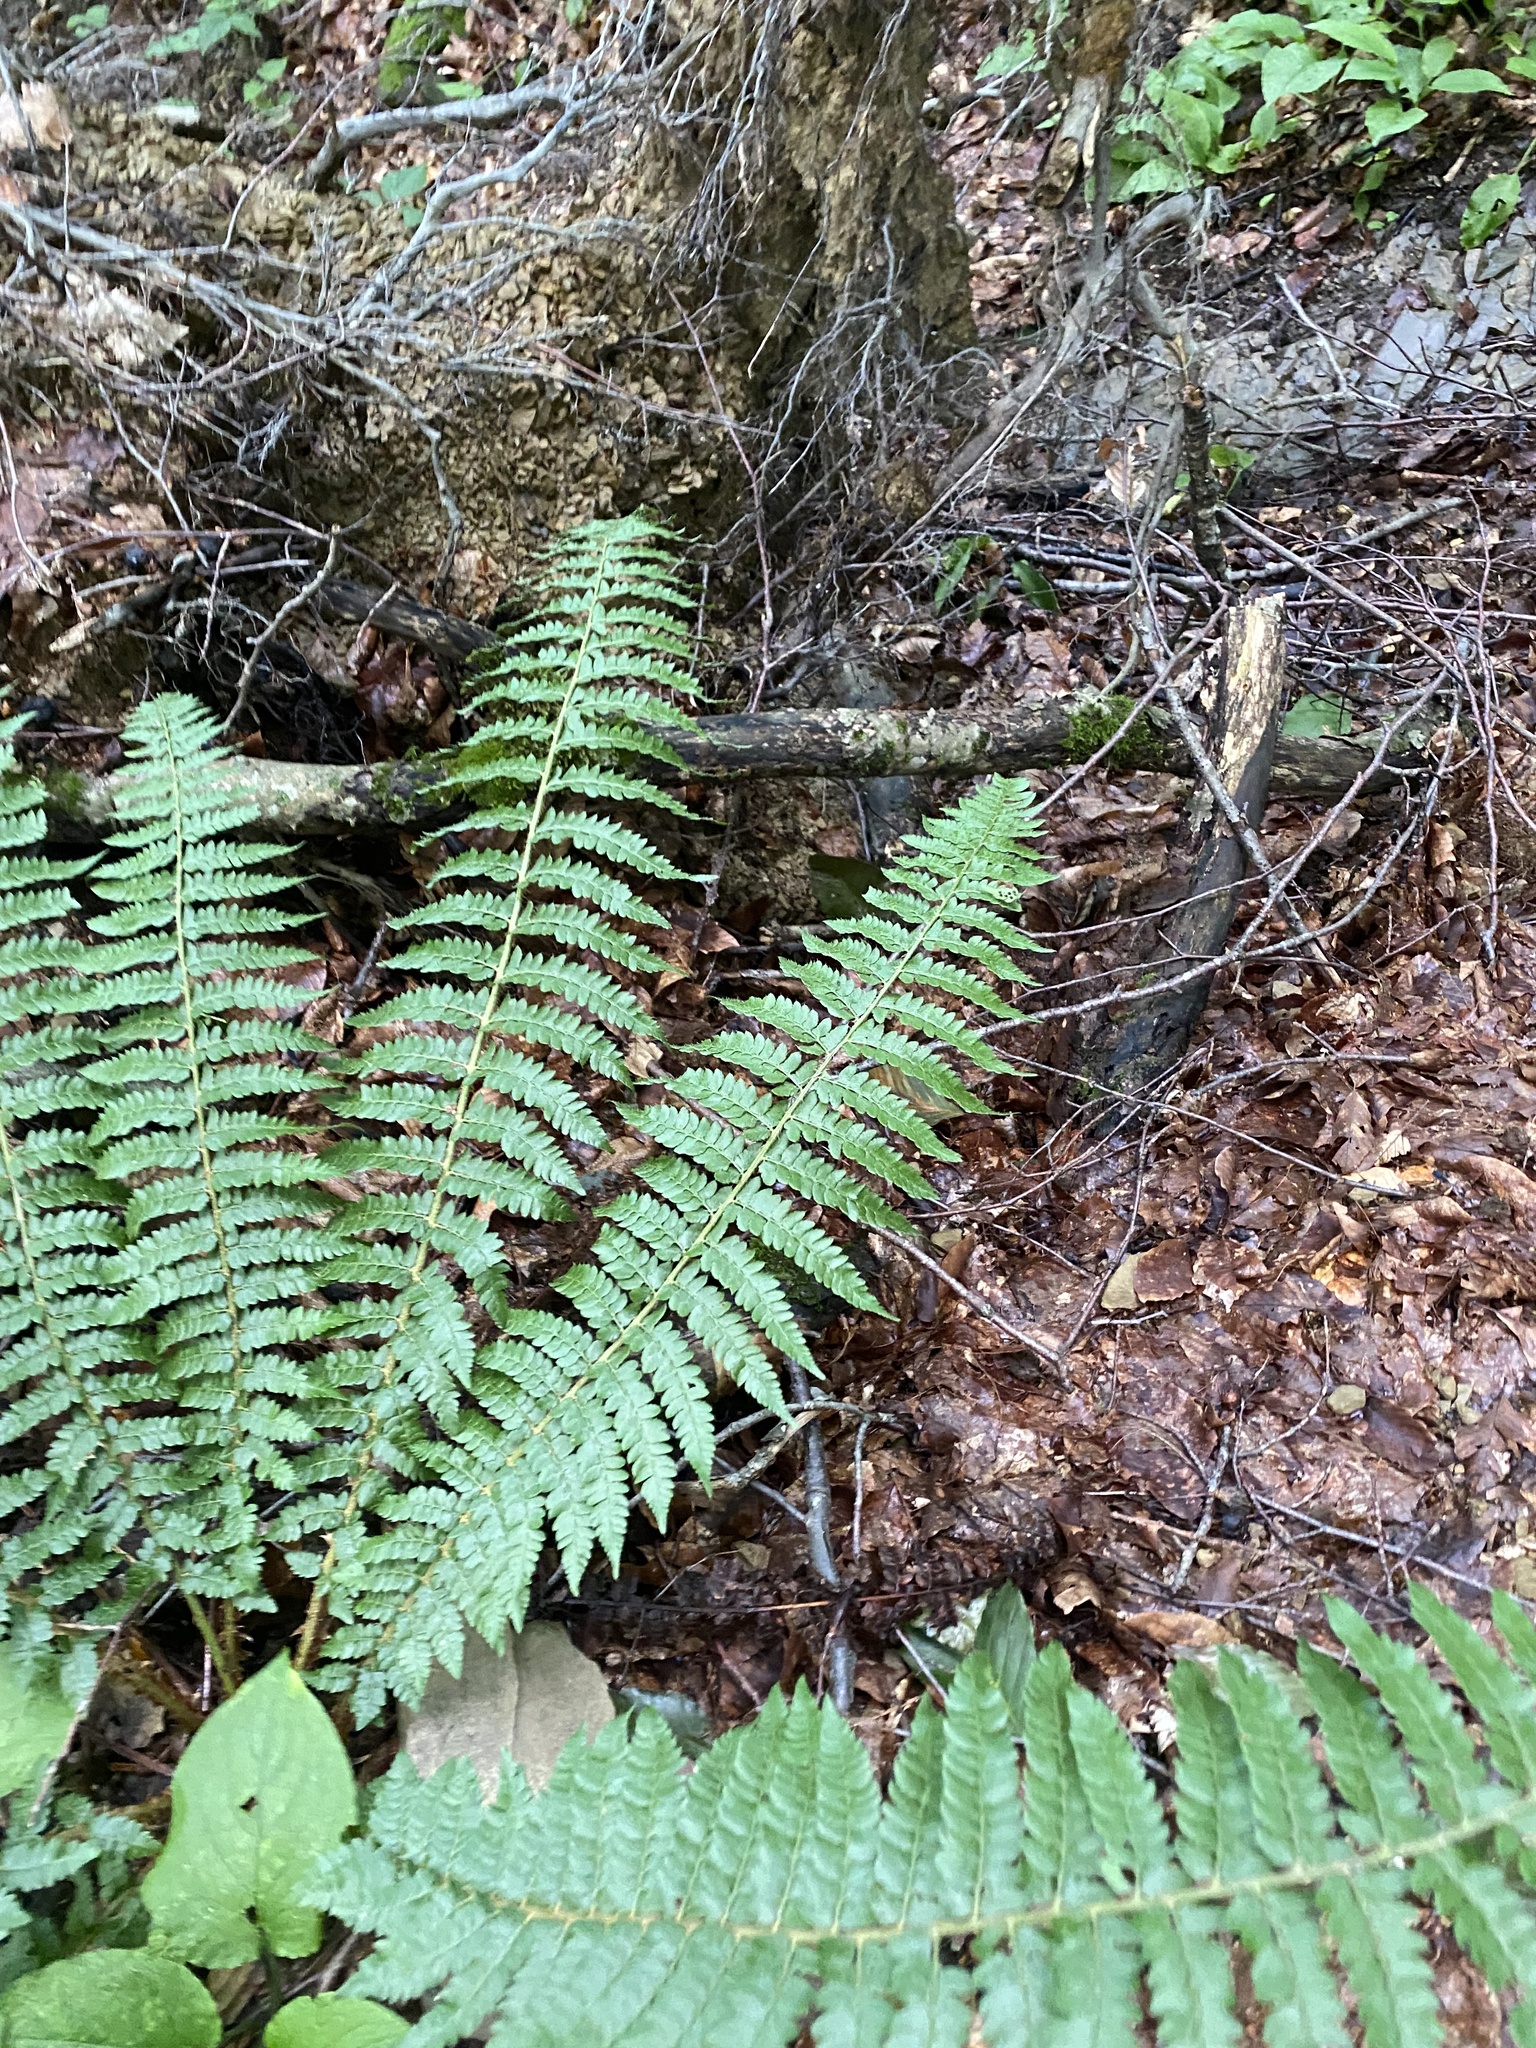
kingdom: Plantae
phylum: Tracheophyta
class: Polypodiopsida
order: Polypodiales
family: Dryopteridaceae
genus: Polystichum
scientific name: Polystichum braunii
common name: Braun's holly fern
